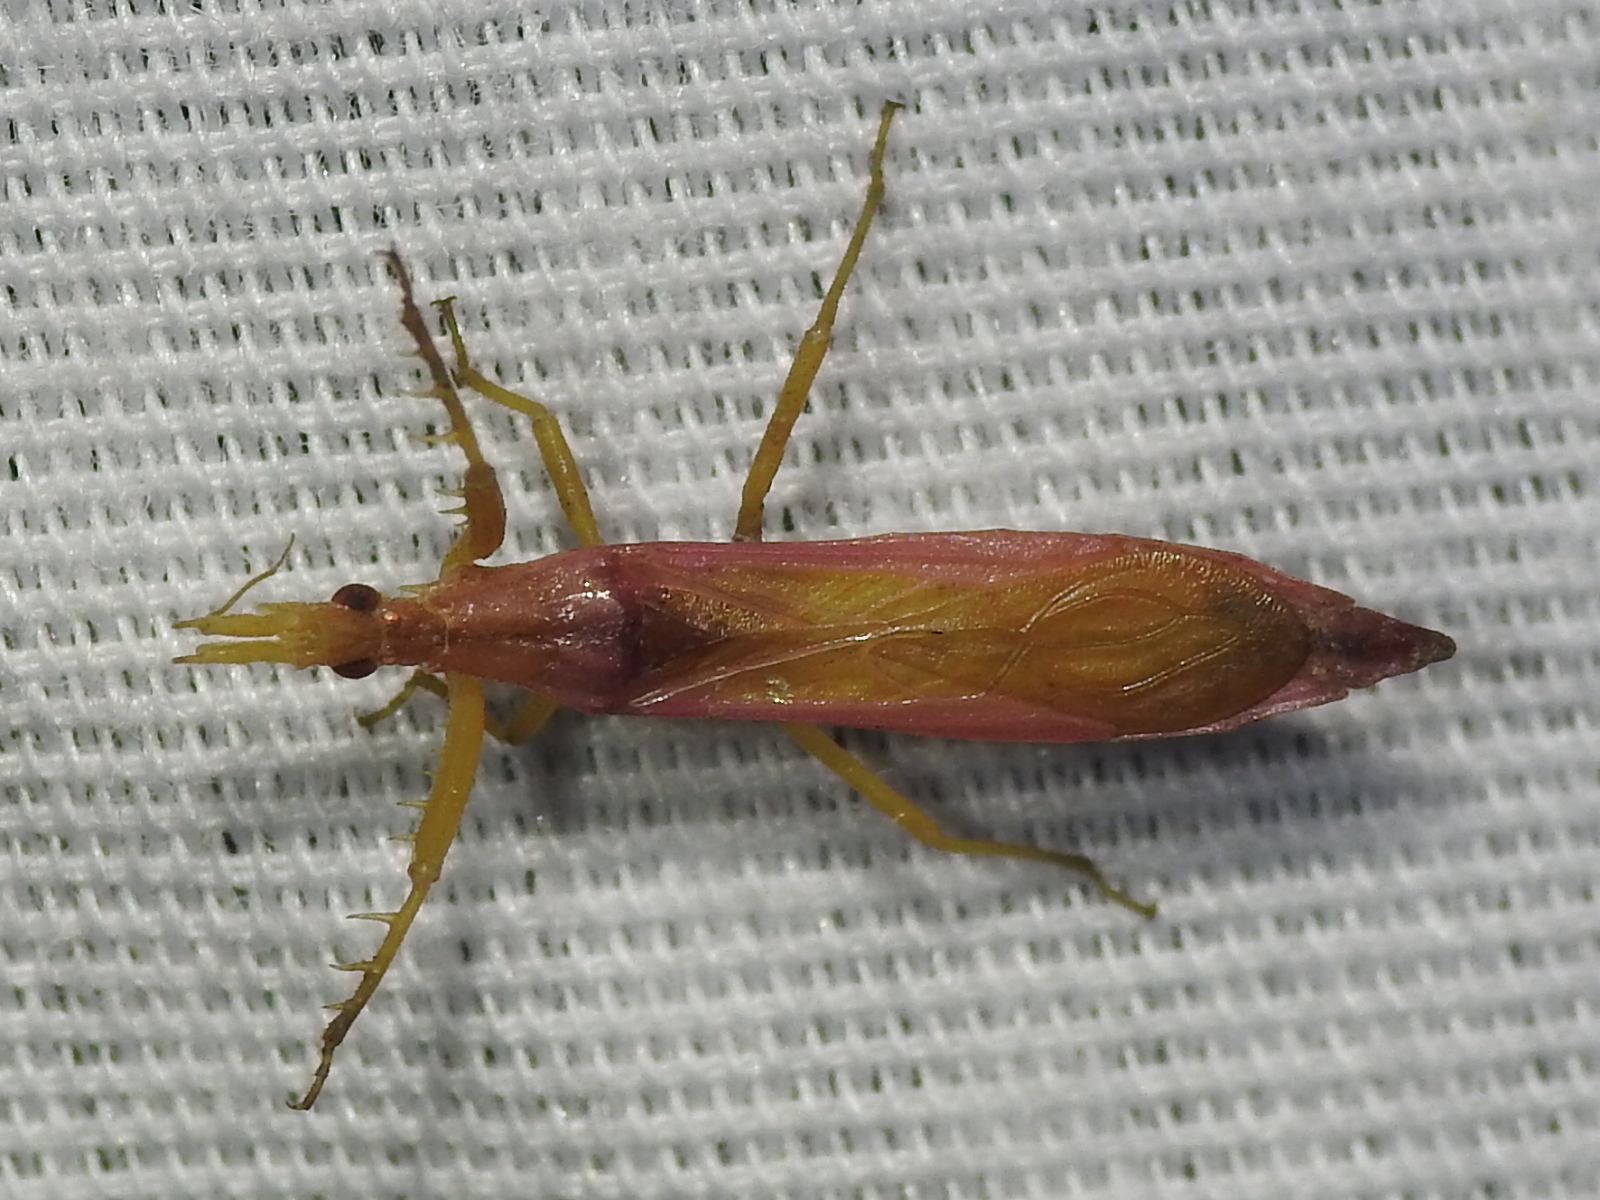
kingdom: Animalia
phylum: Arthropoda
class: Insecta
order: Hemiptera
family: Reduviidae
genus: Pnirontis
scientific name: Pnirontis languida
